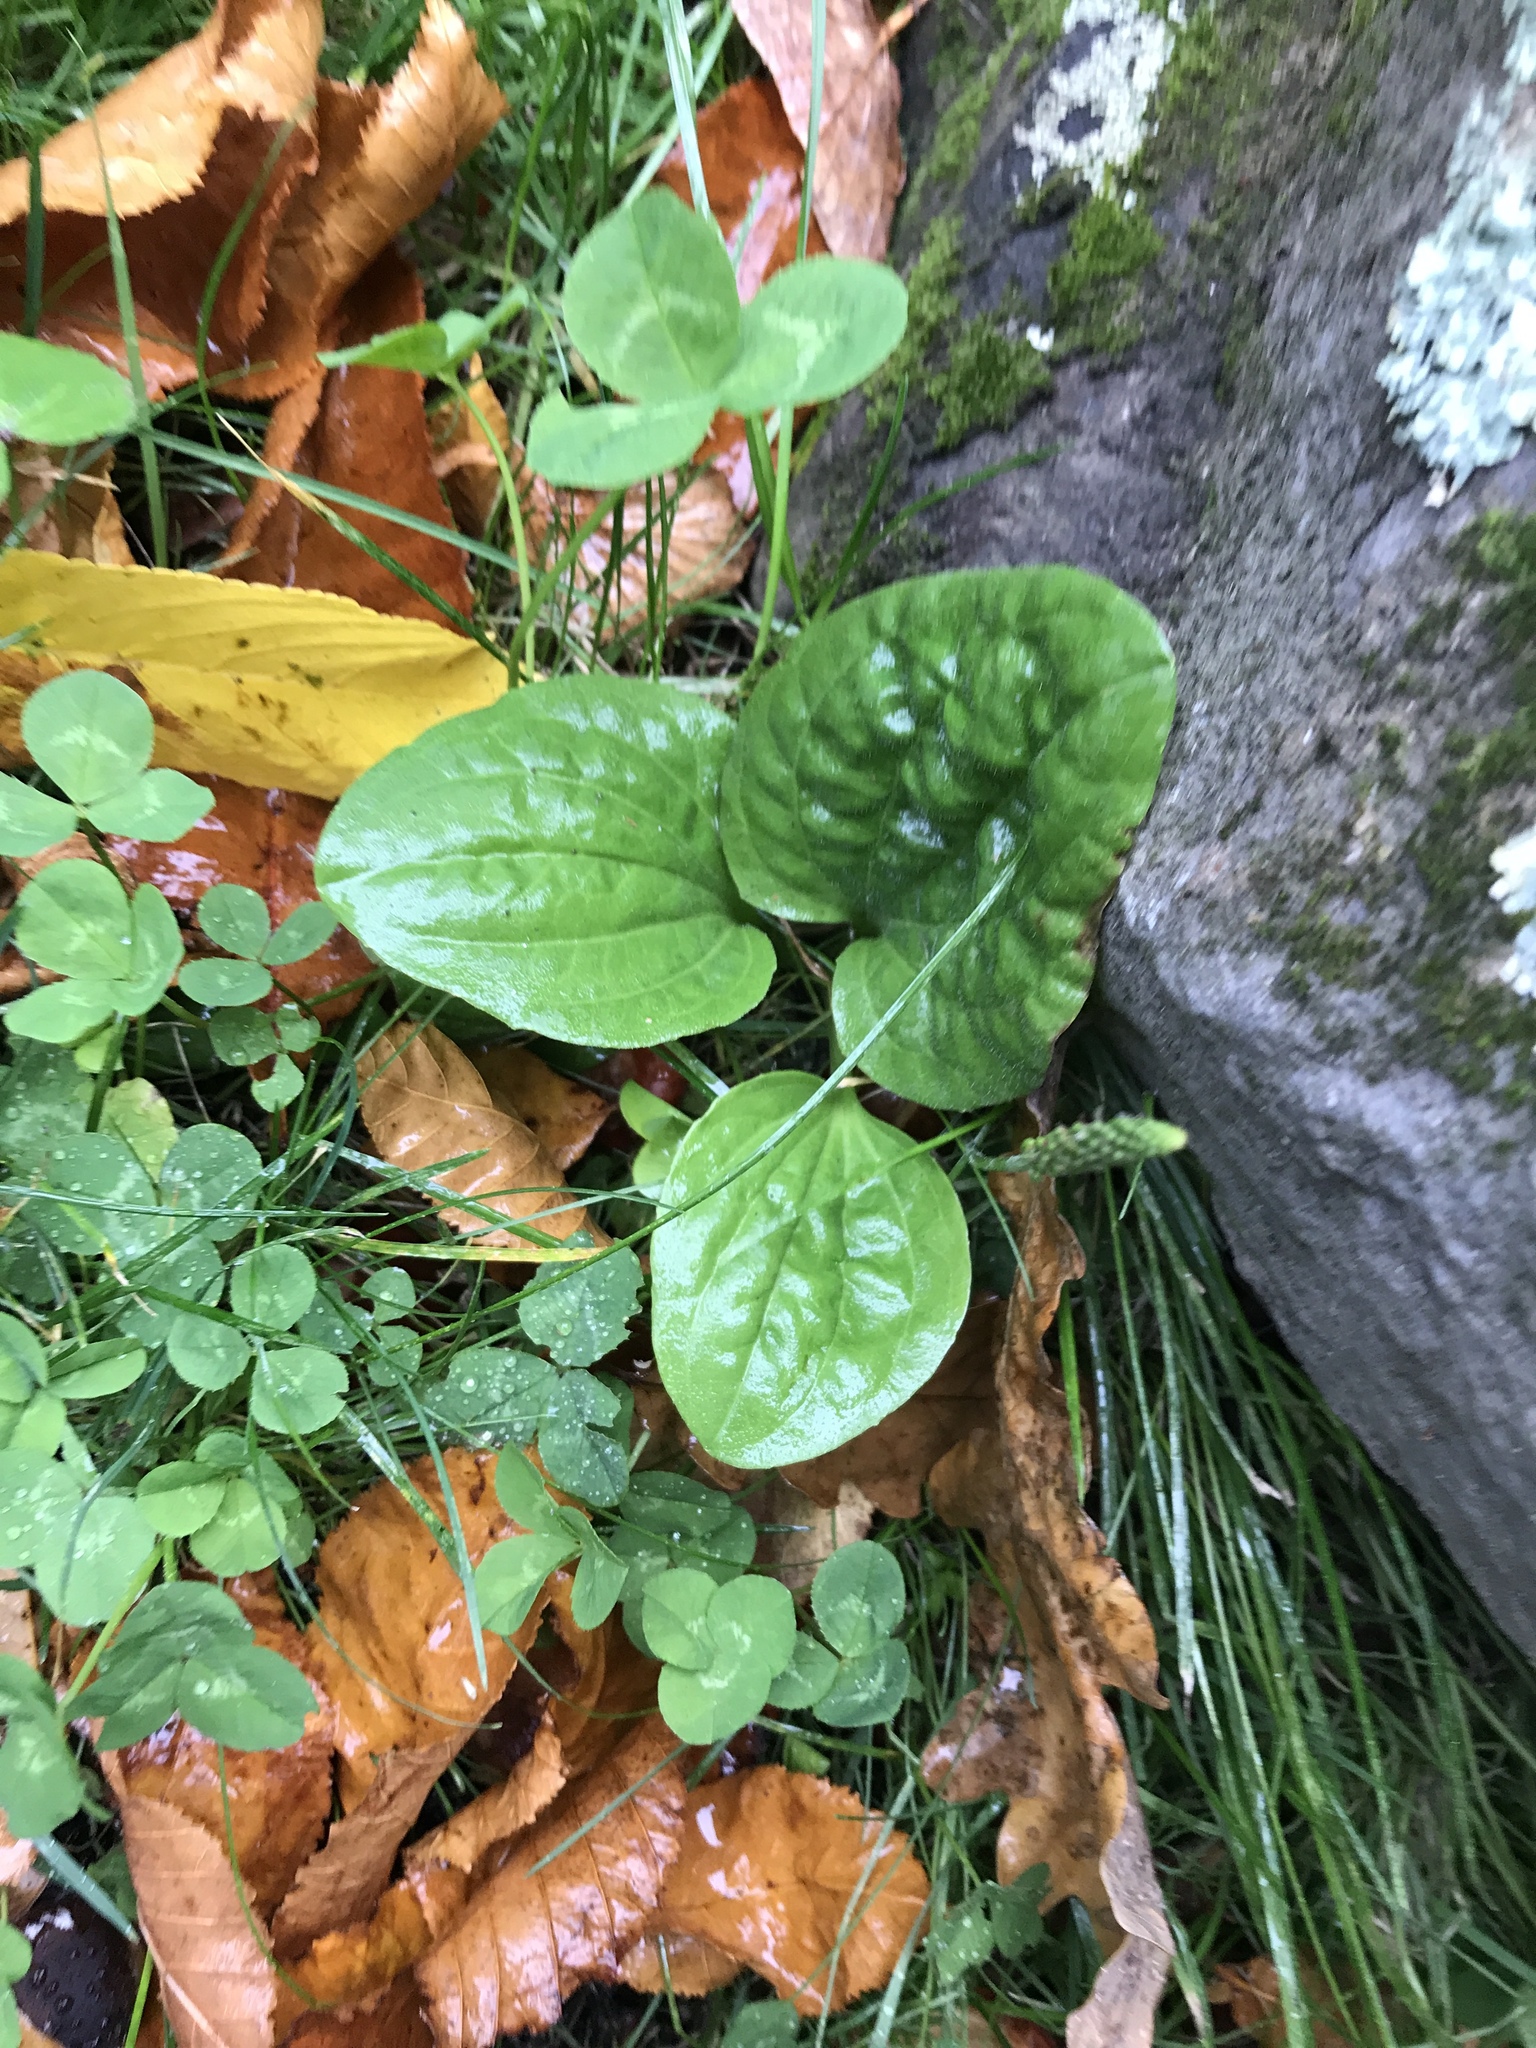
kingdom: Plantae
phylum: Tracheophyta
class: Magnoliopsida
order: Lamiales
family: Plantaginaceae
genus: Plantago
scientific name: Plantago major
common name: Common plantain
